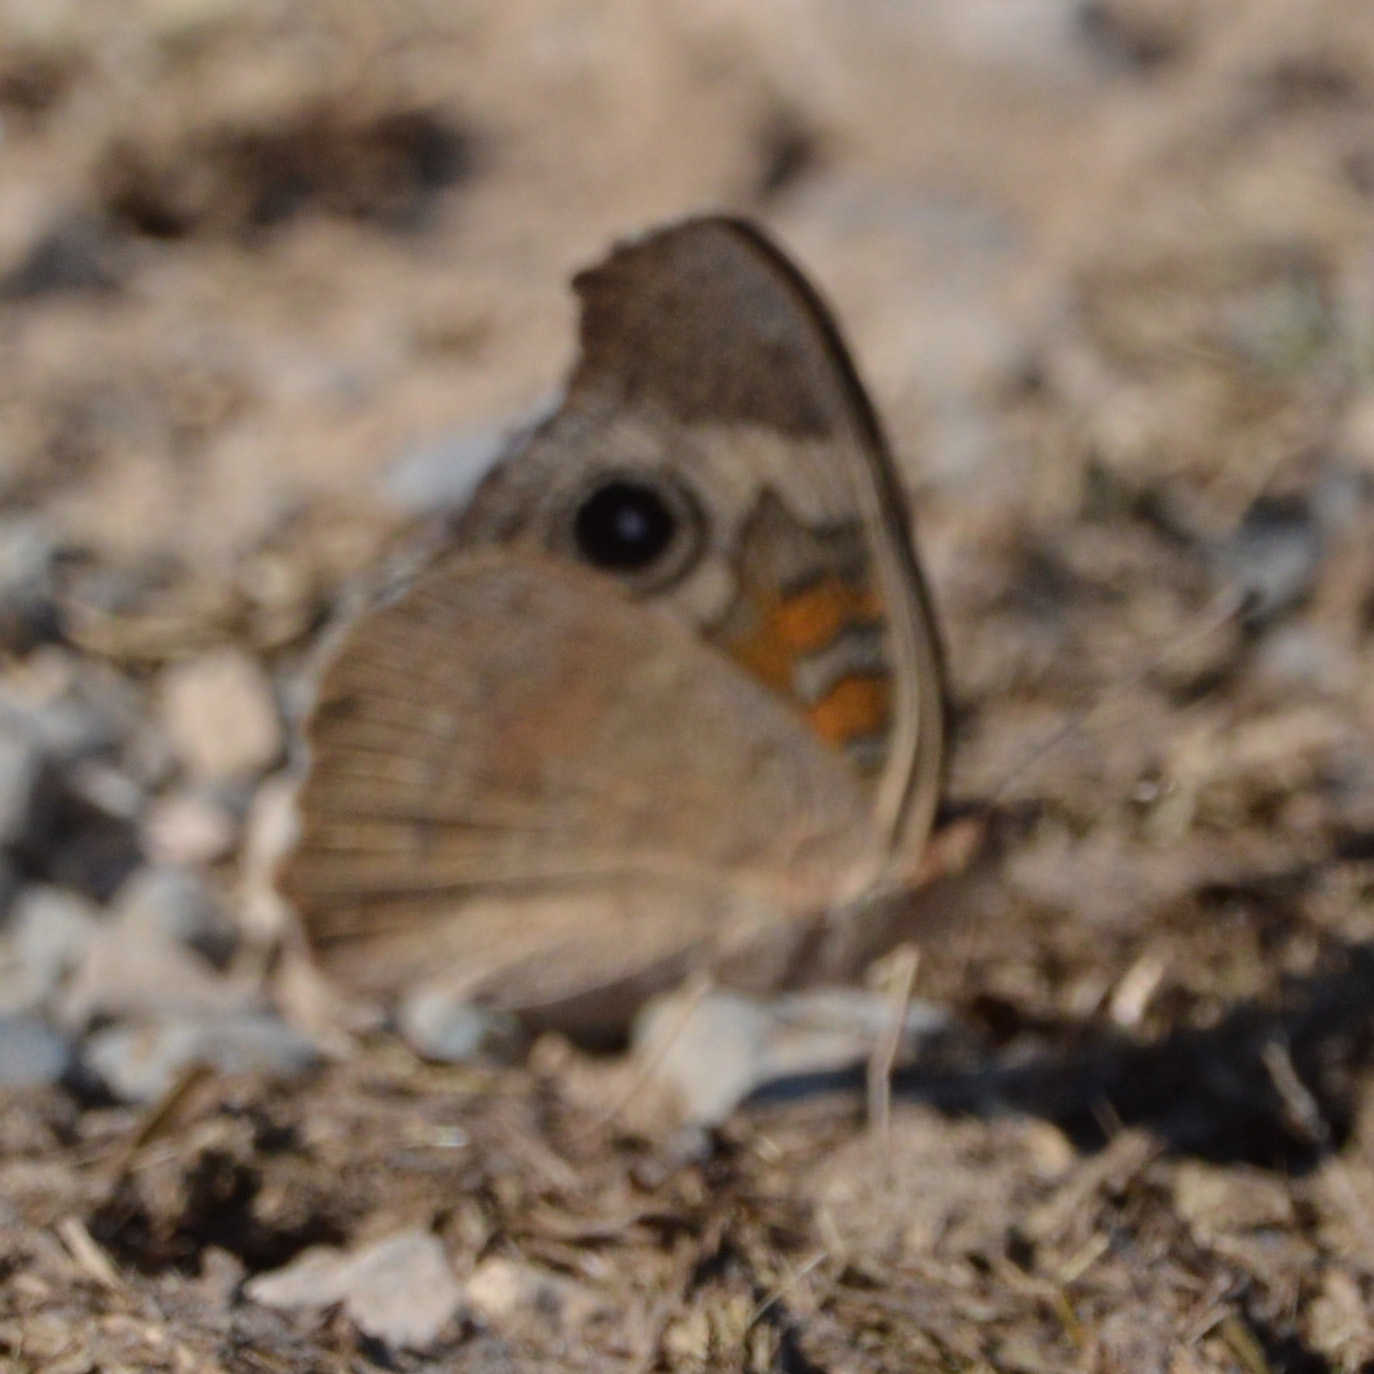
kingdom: Animalia
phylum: Arthropoda
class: Insecta
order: Lepidoptera
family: Nymphalidae
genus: Junonia
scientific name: Junonia grisea
